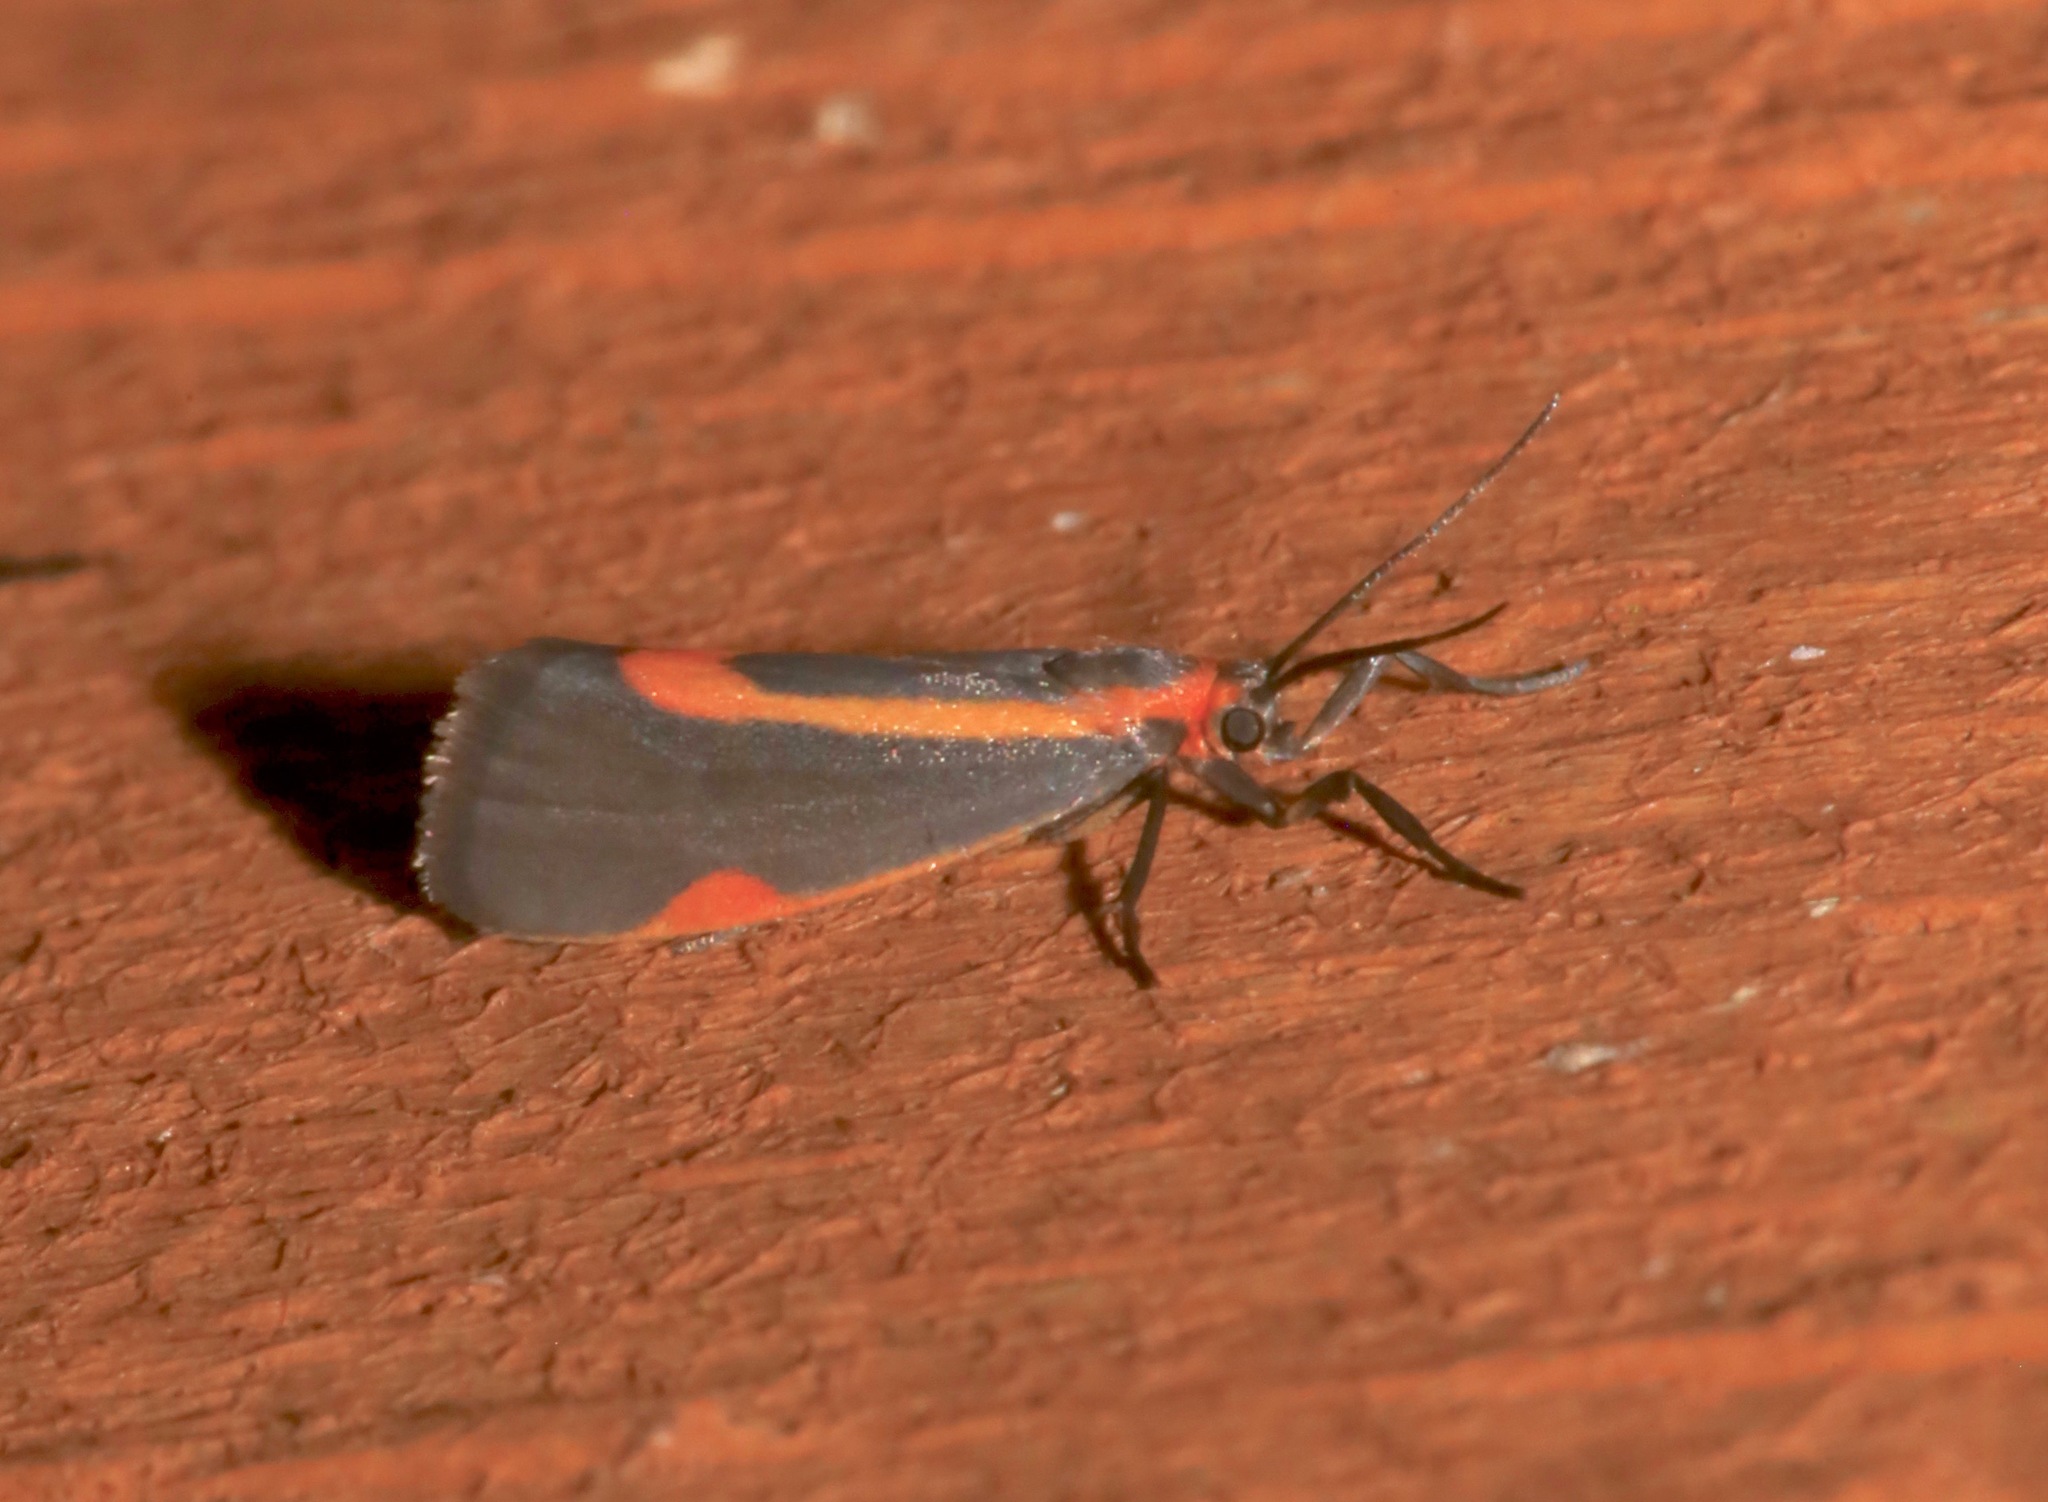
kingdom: Animalia
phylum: Arthropoda
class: Insecta
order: Lepidoptera
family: Erebidae
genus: Cisthene
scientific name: Cisthene subjecta
